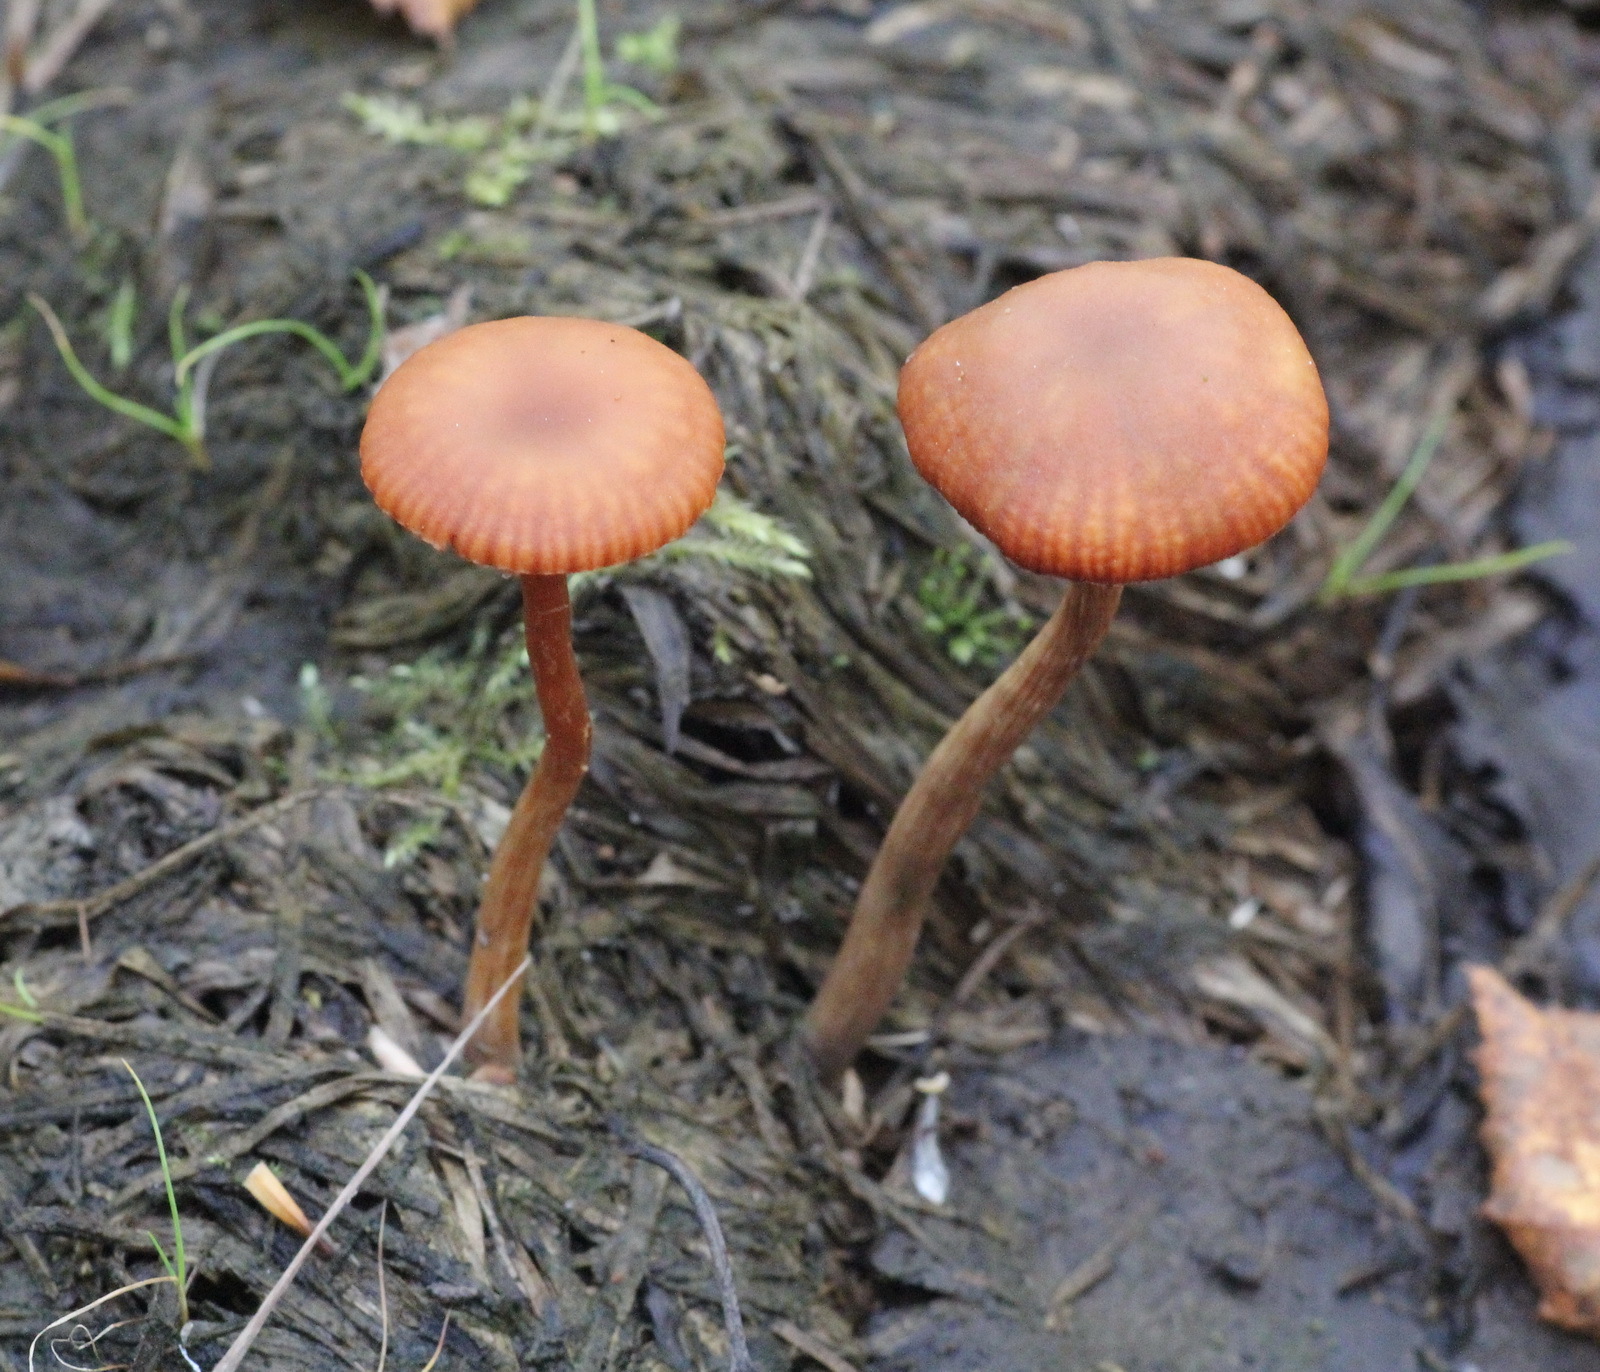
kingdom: Fungi
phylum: Basidiomycota
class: Agaricomycetes
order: Agaricales
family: Hydnangiaceae
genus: Laccaria
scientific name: Laccaria laccata
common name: Deceiver
